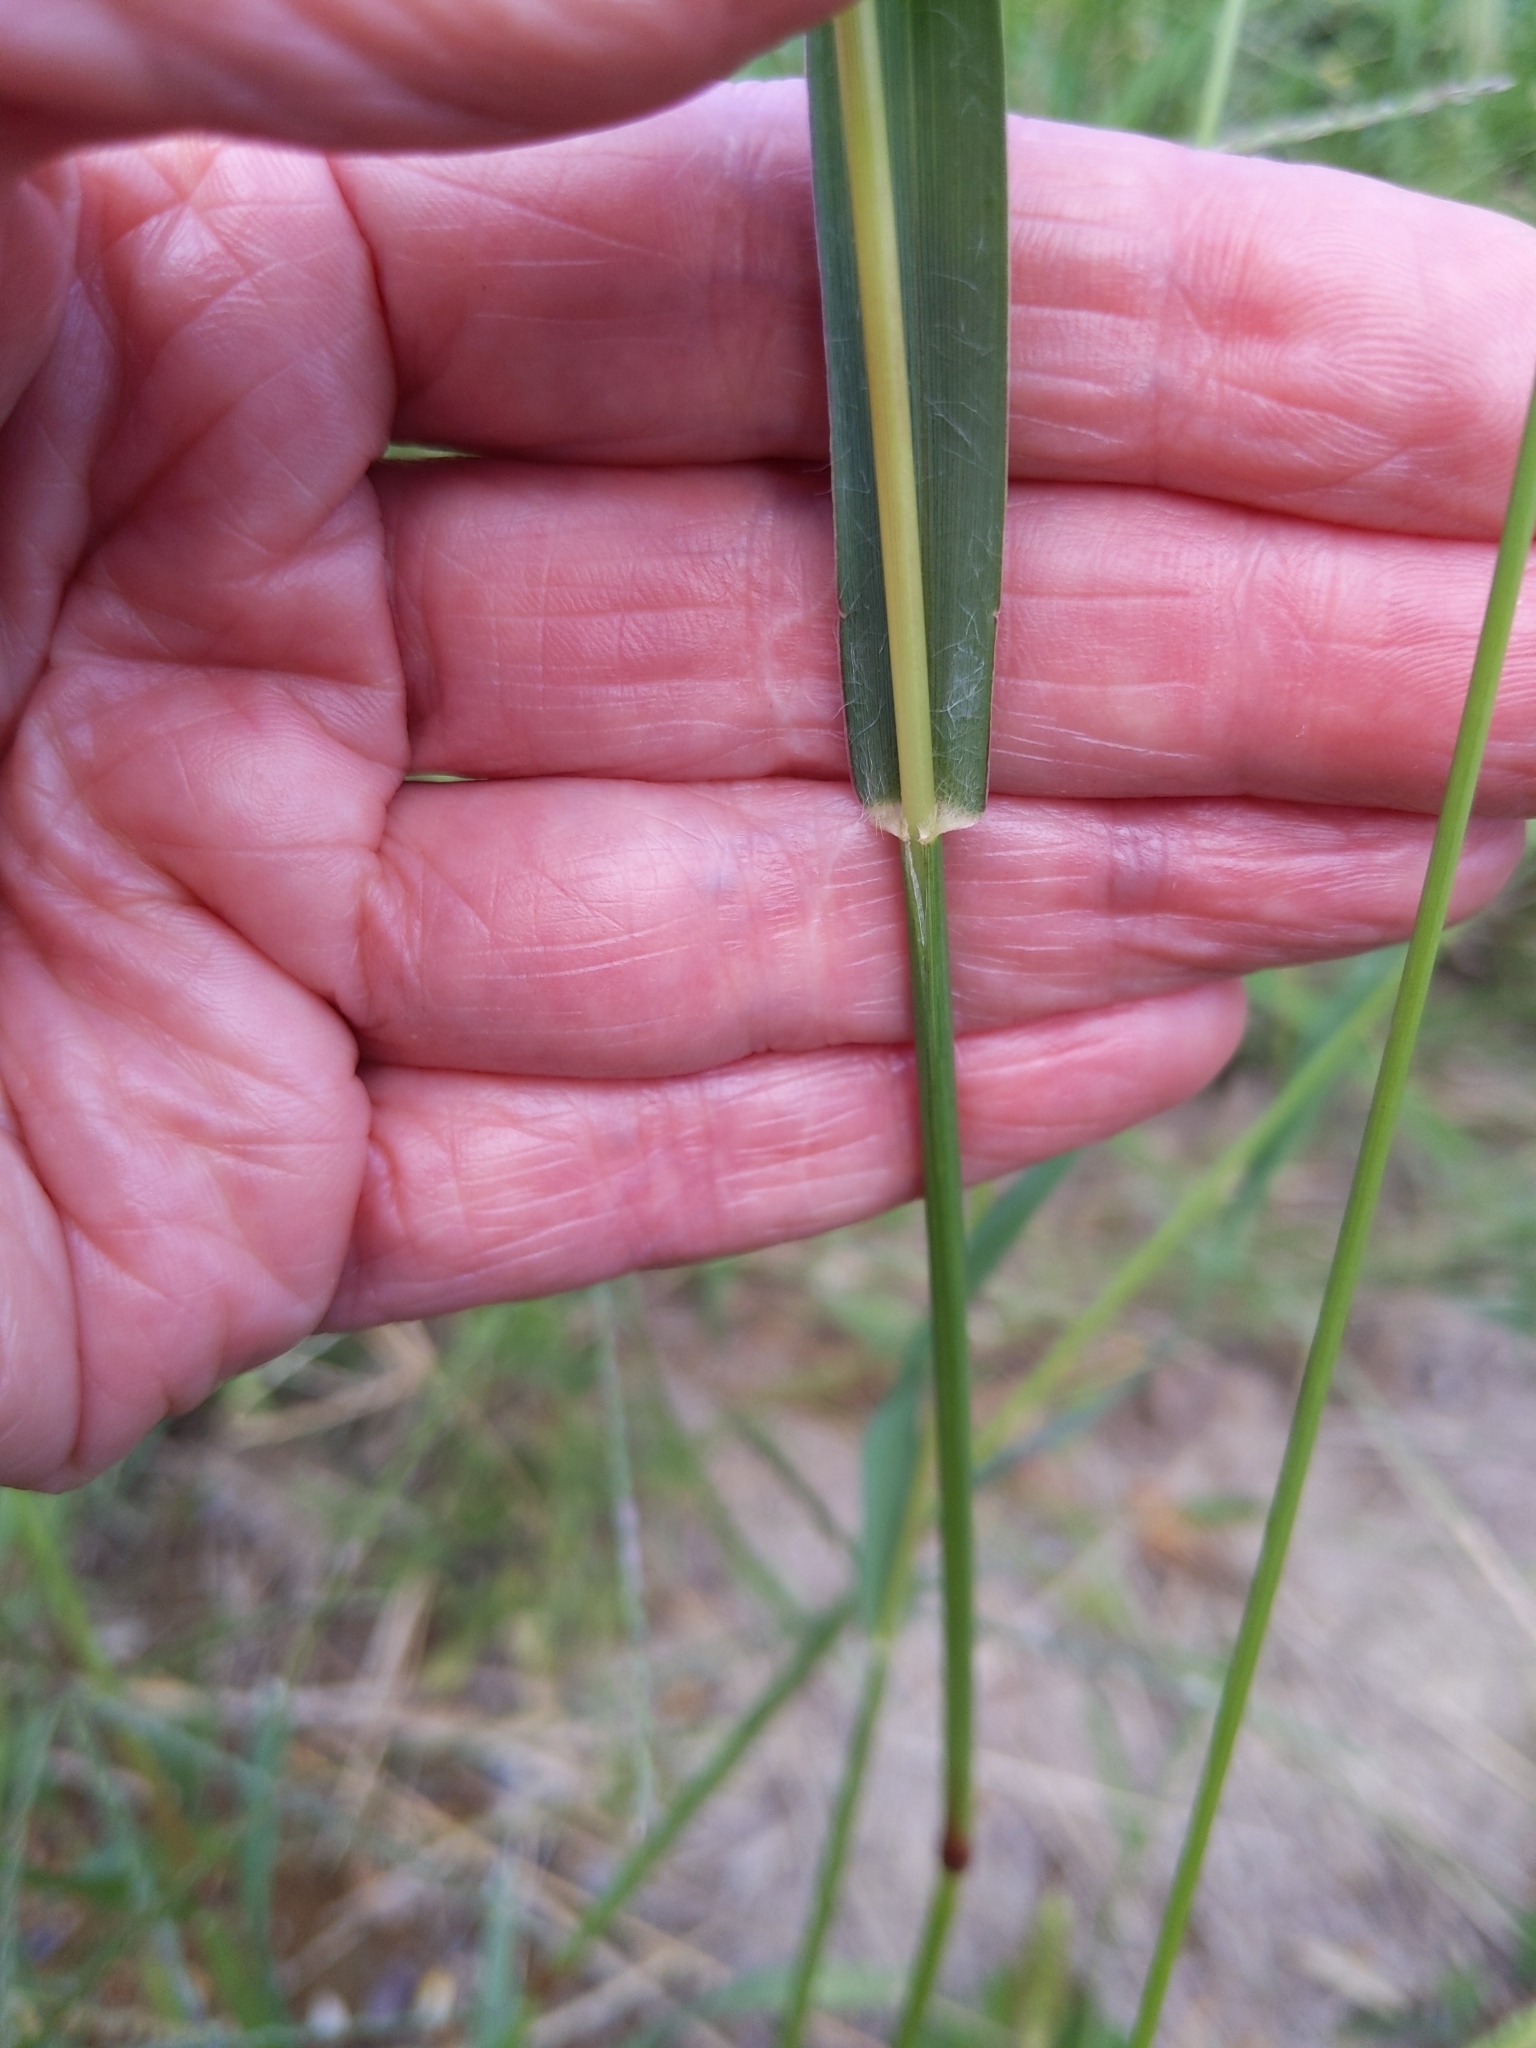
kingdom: Plantae
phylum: Tracheophyta
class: Liliopsida
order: Poales
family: Poaceae
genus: Setaria
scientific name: Setaria pumila
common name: Yellow bristle-grass
